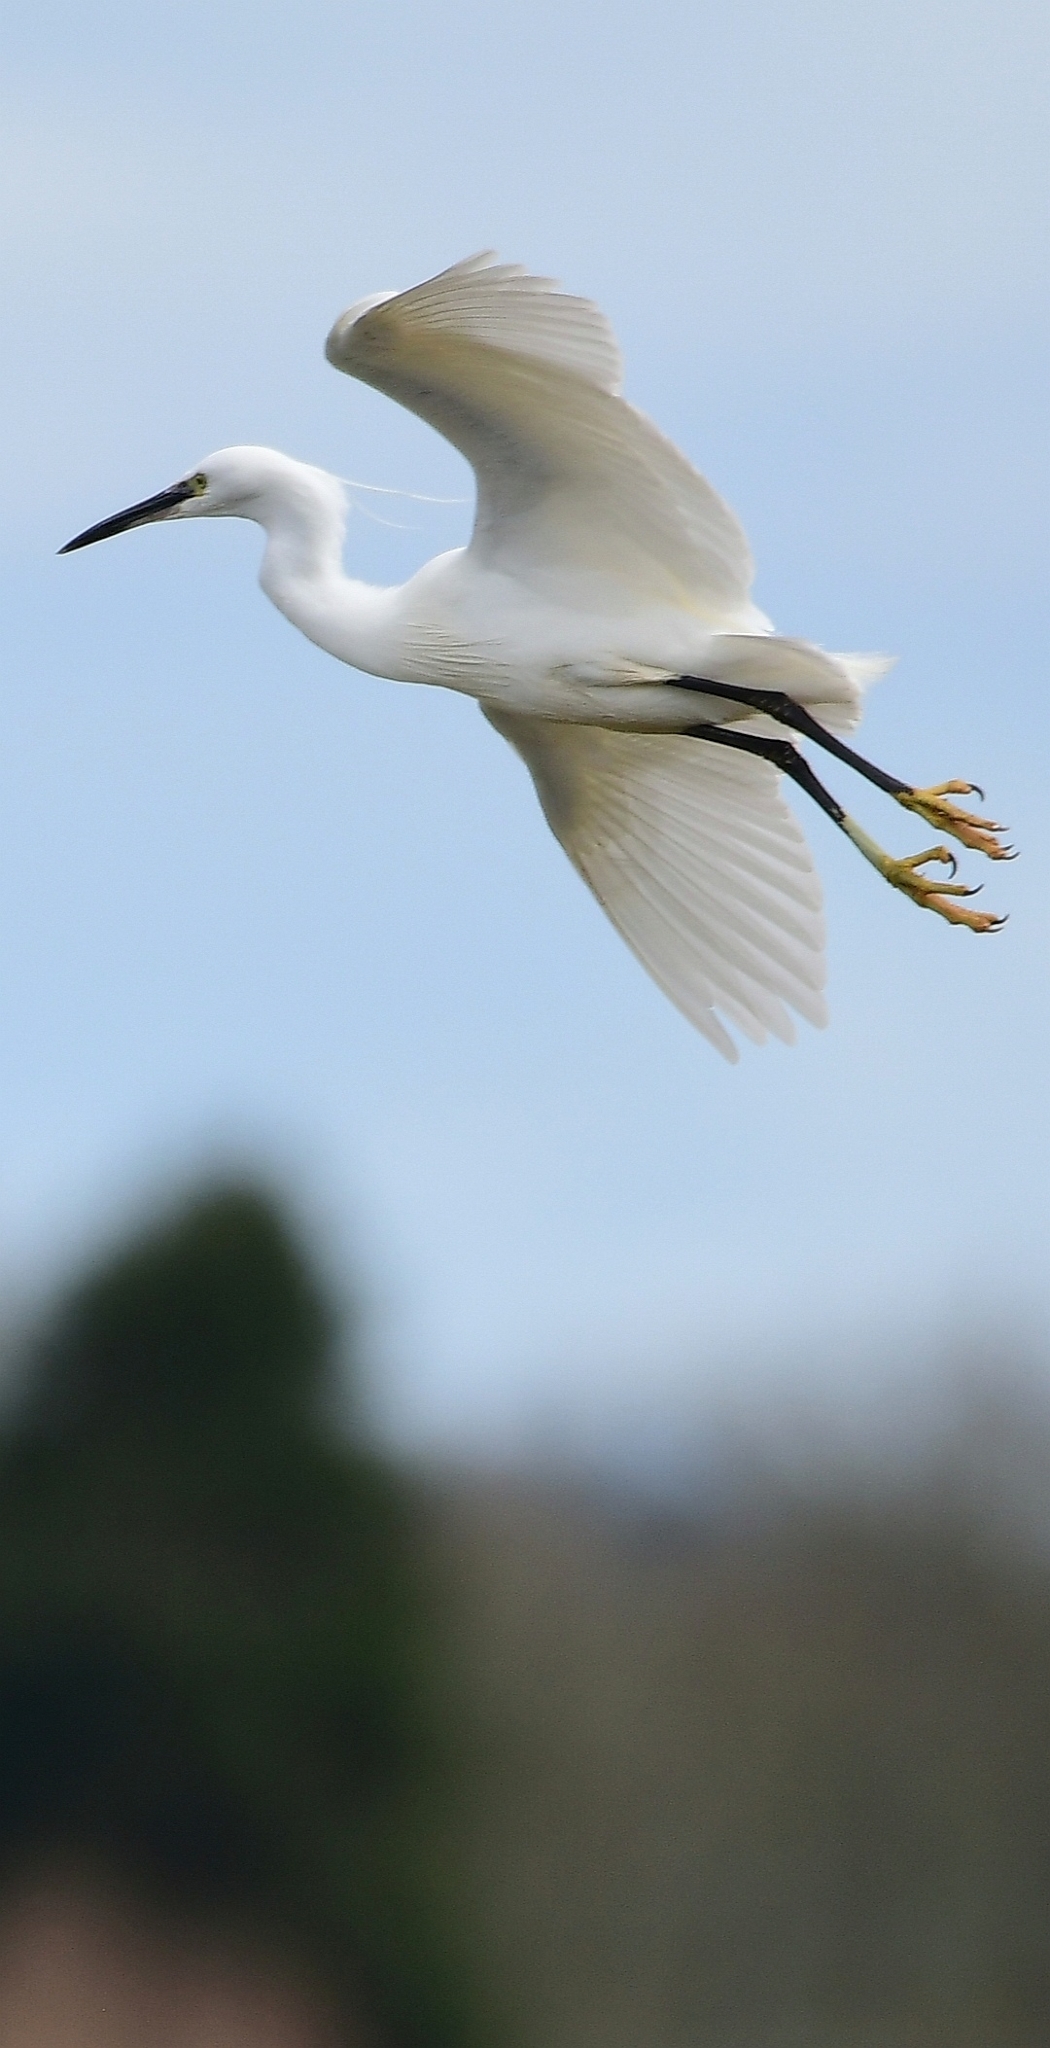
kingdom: Animalia
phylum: Chordata
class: Aves
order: Pelecaniformes
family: Ardeidae
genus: Egretta
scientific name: Egretta garzetta
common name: Little egret
